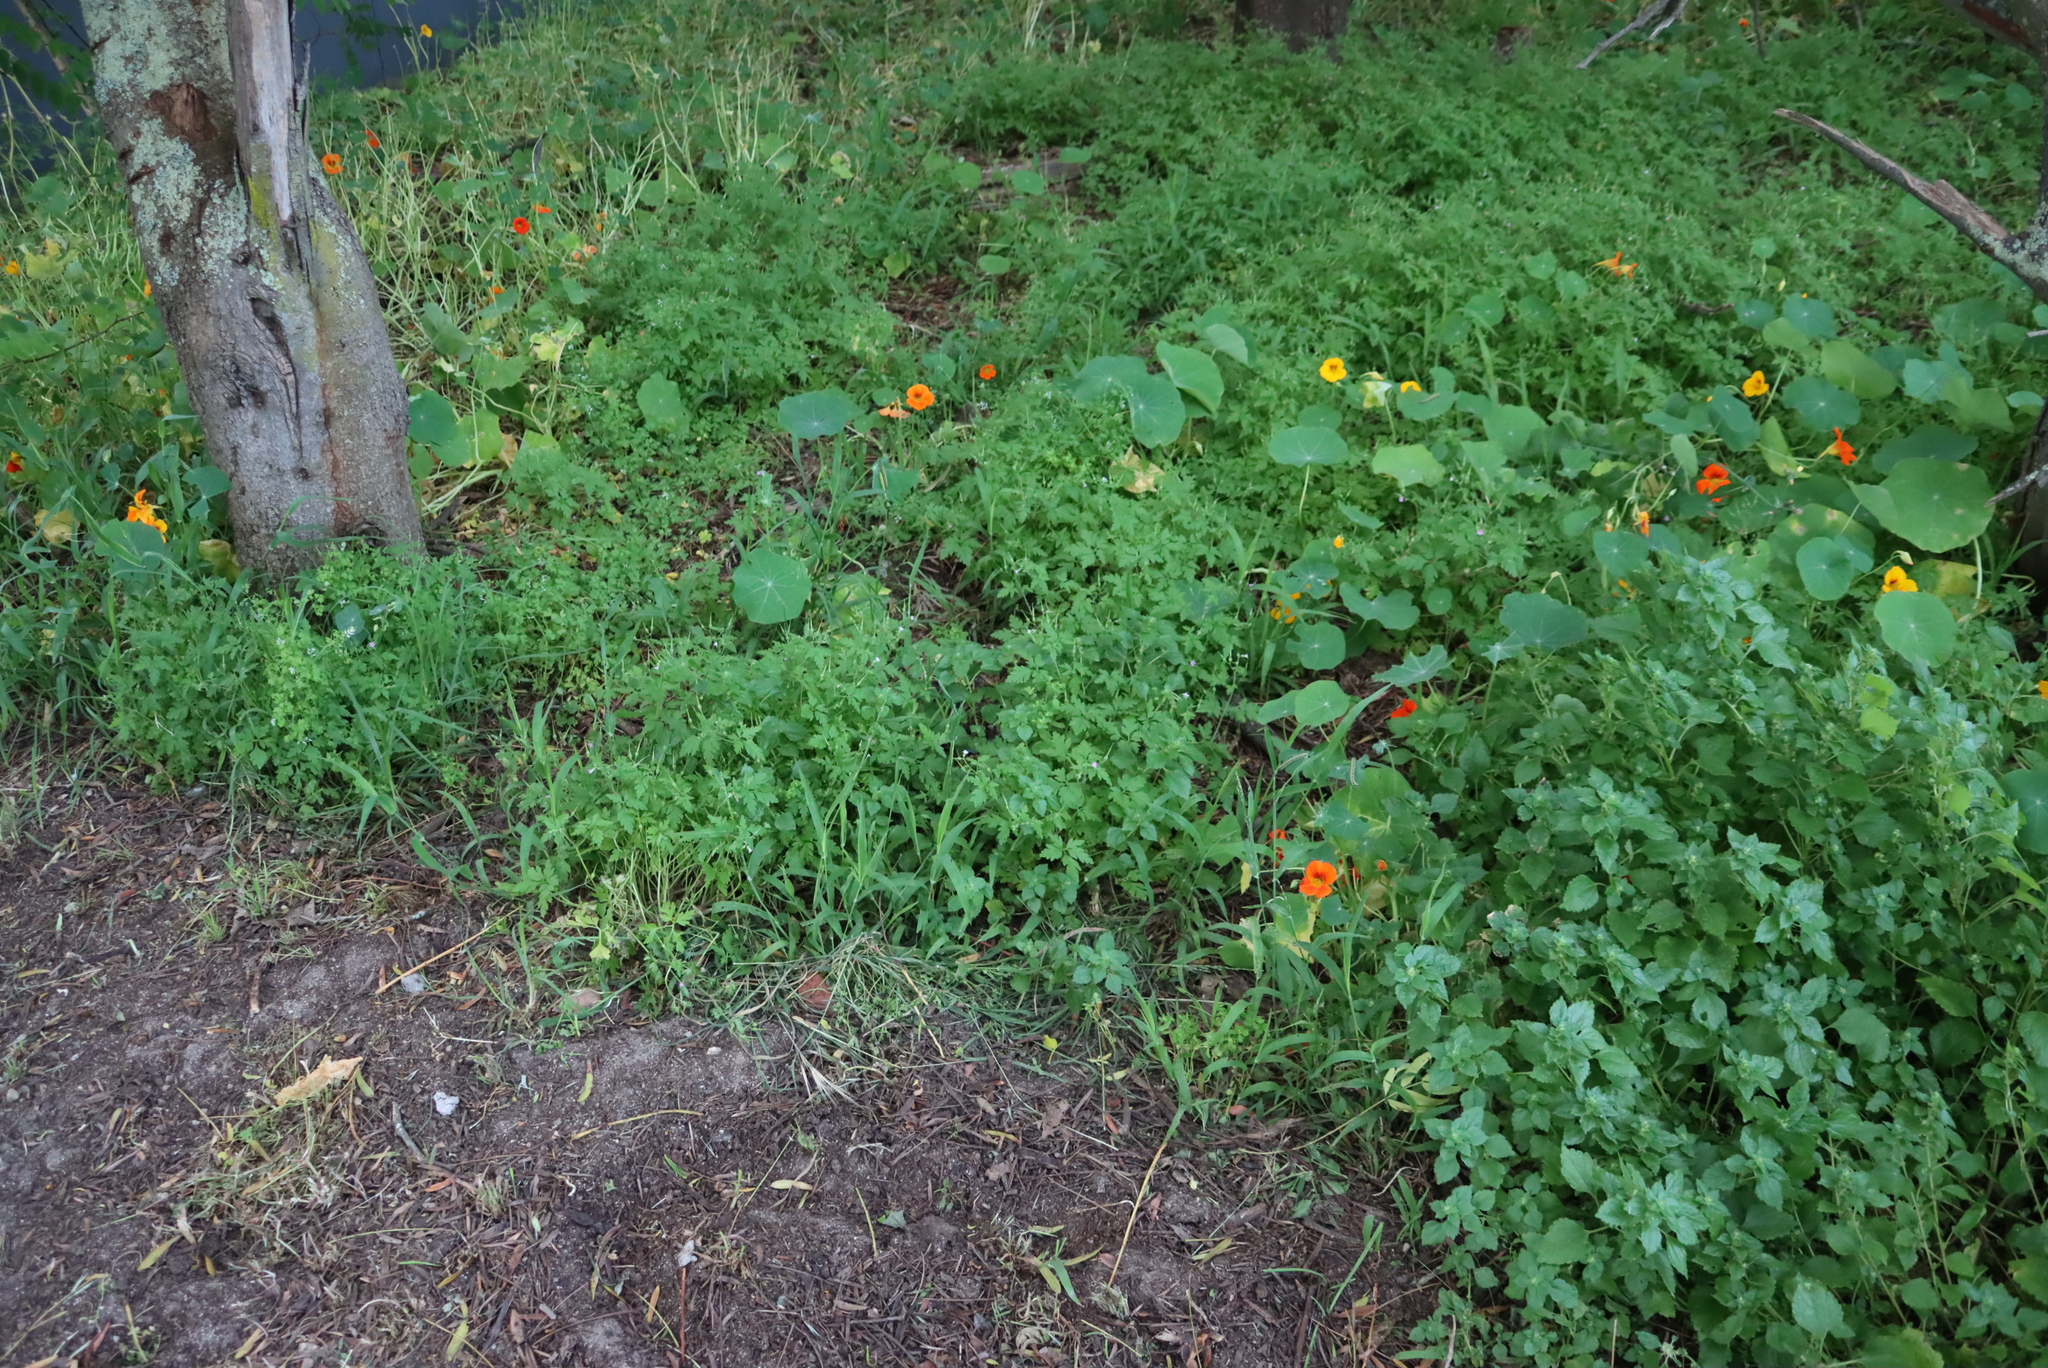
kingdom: Plantae
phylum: Tracheophyta
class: Magnoliopsida
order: Brassicales
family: Tropaeolaceae
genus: Tropaeolum
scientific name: Tropaeolum majus
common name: Nasturtium
